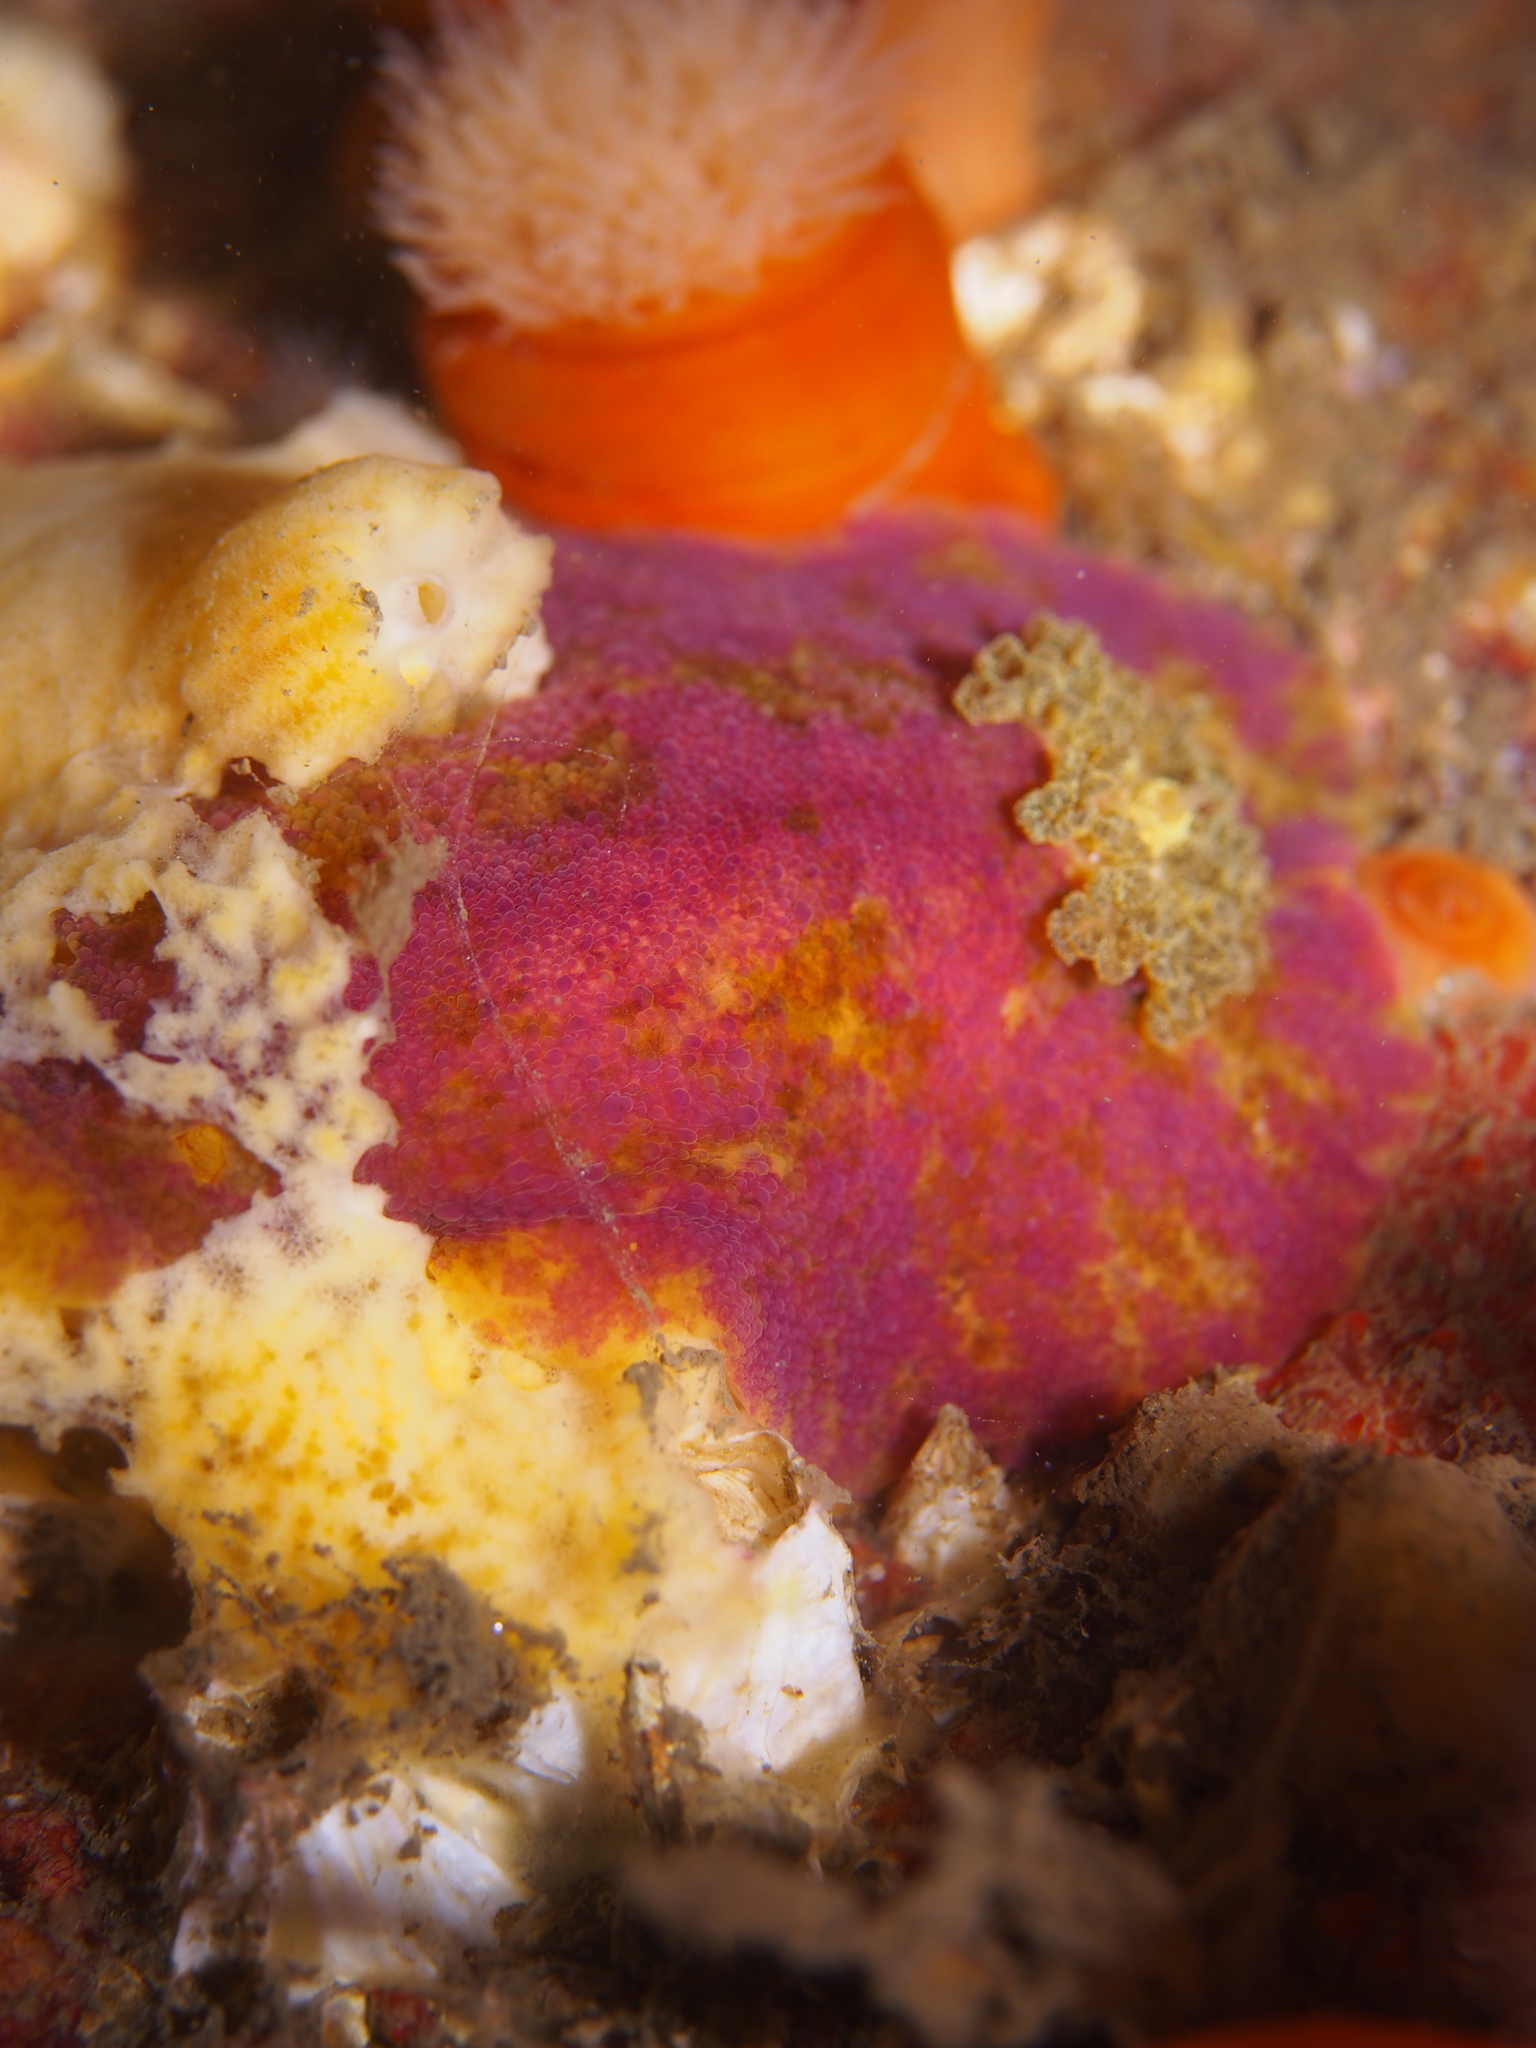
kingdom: Animalia
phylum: Mollusca
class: Gastropoda
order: Nudibranchia
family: Dorididae
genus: Doris
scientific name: Doris pseudoargus
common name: Sea lemon
